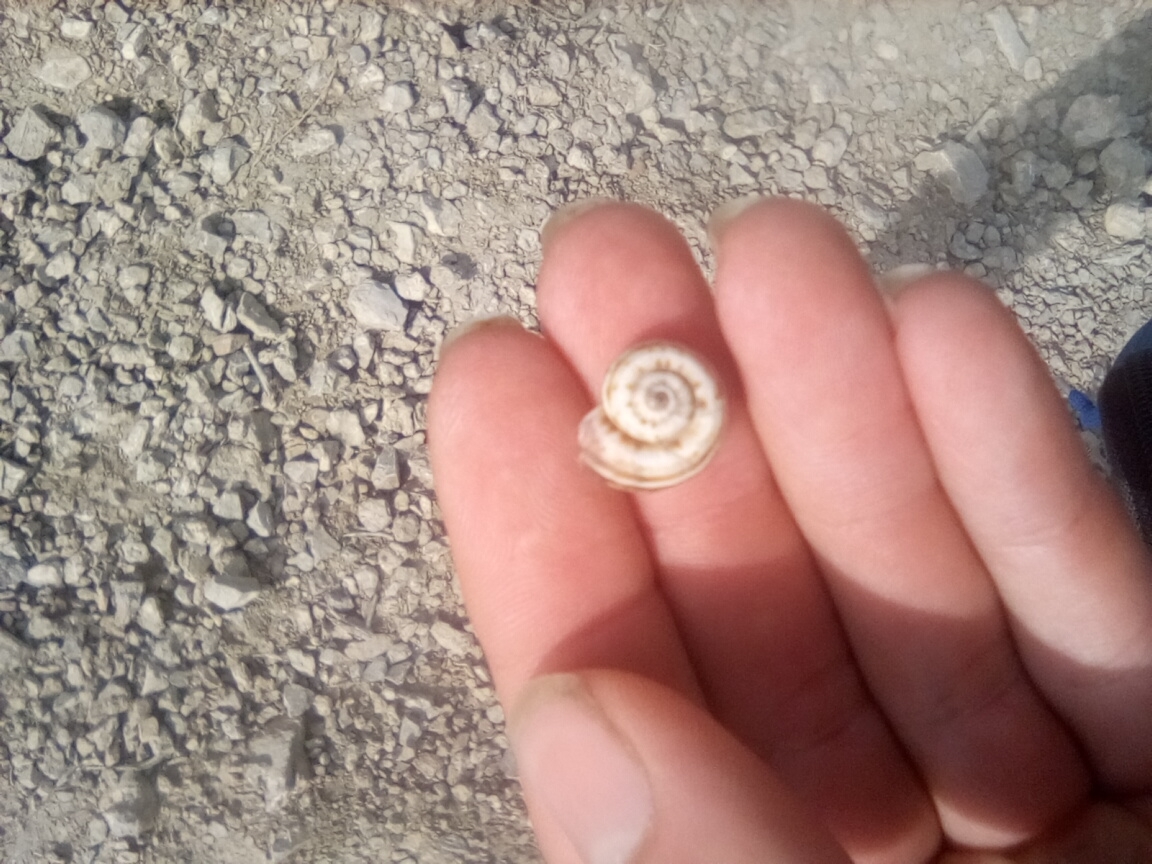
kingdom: Animalia
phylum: Mollusca
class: Gastropoda
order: Stylommatophora
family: Geomitridae
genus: Xeropicta
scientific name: Xeropicta krynickii
